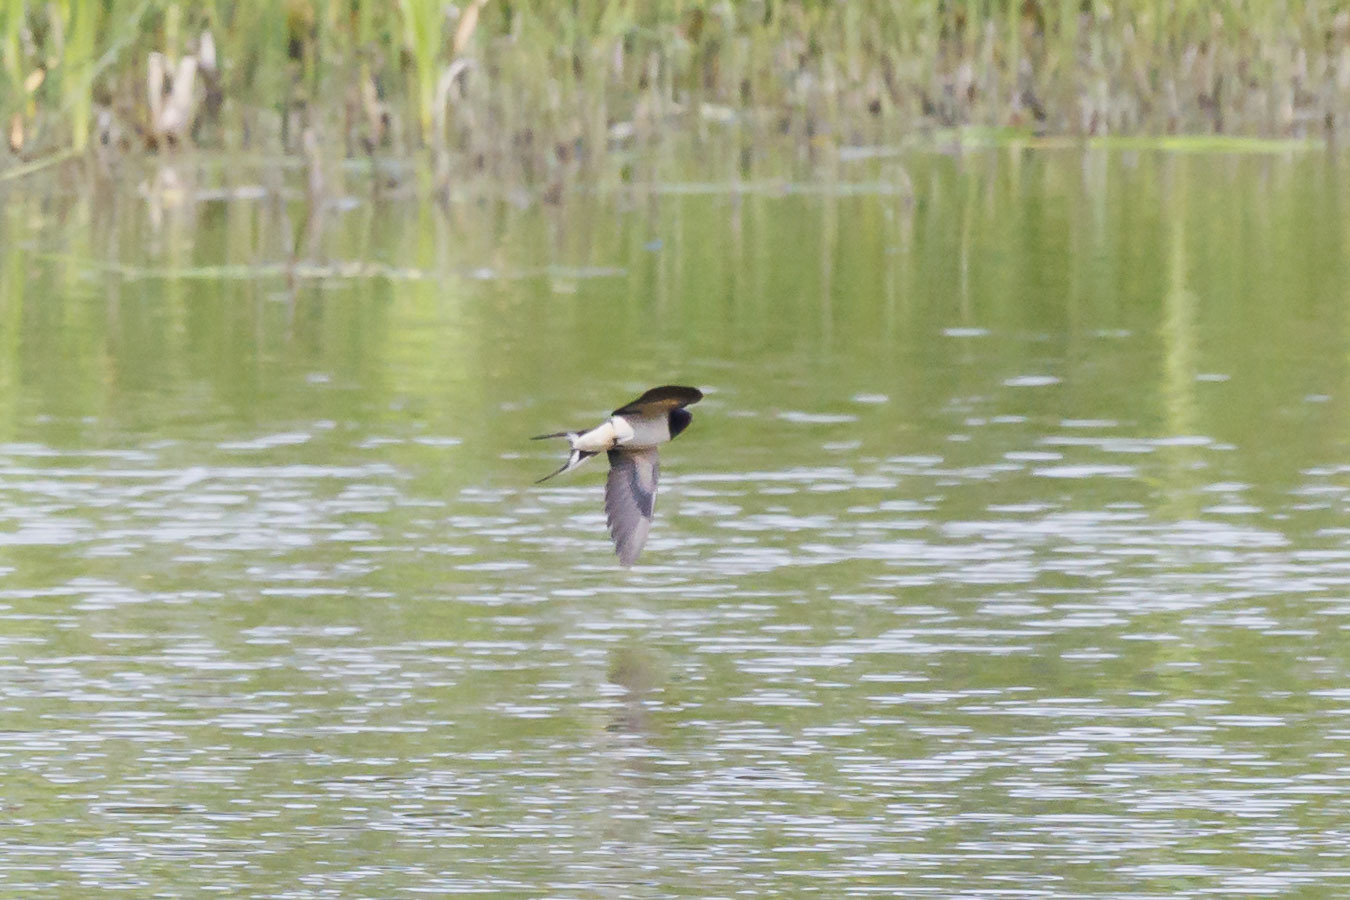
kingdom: Animalia
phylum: Chordata
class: Aves
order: Passeriformes
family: Hirundinidae
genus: Hirundo
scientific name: Hirundo rustica
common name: Barn swallow
